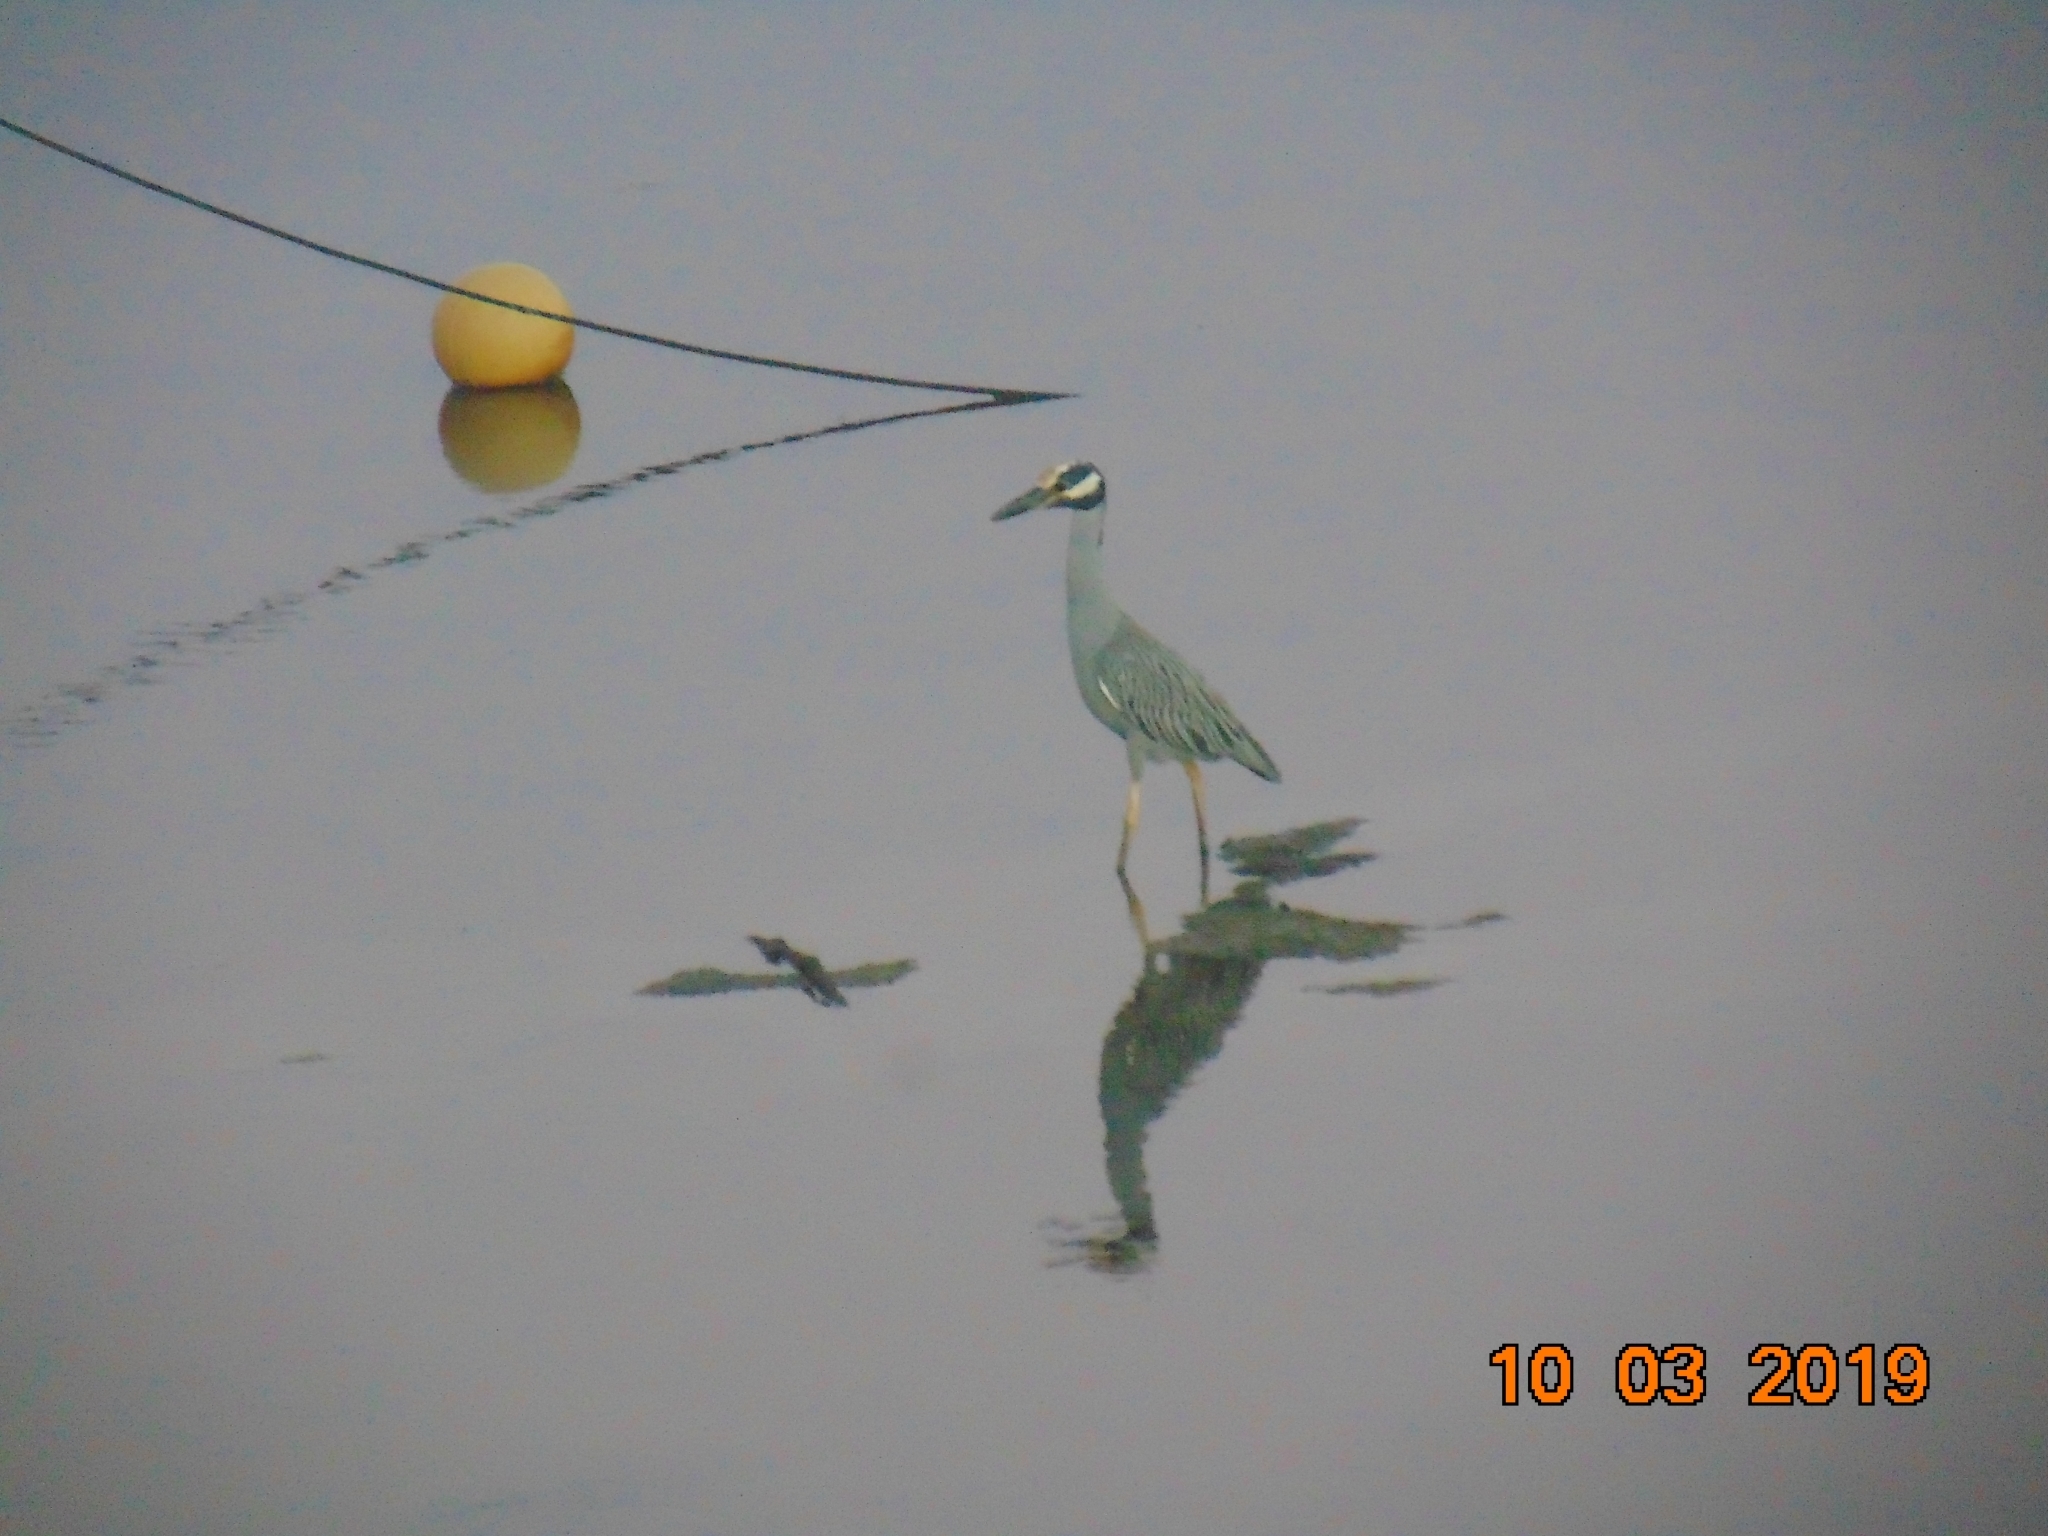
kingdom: Animalia
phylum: Chordata
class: Aves
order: Pelecaniformes
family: Ardeidae
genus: Nyctanassa
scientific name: Nyctanassa violacea
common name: Yellow-crowned night heron
